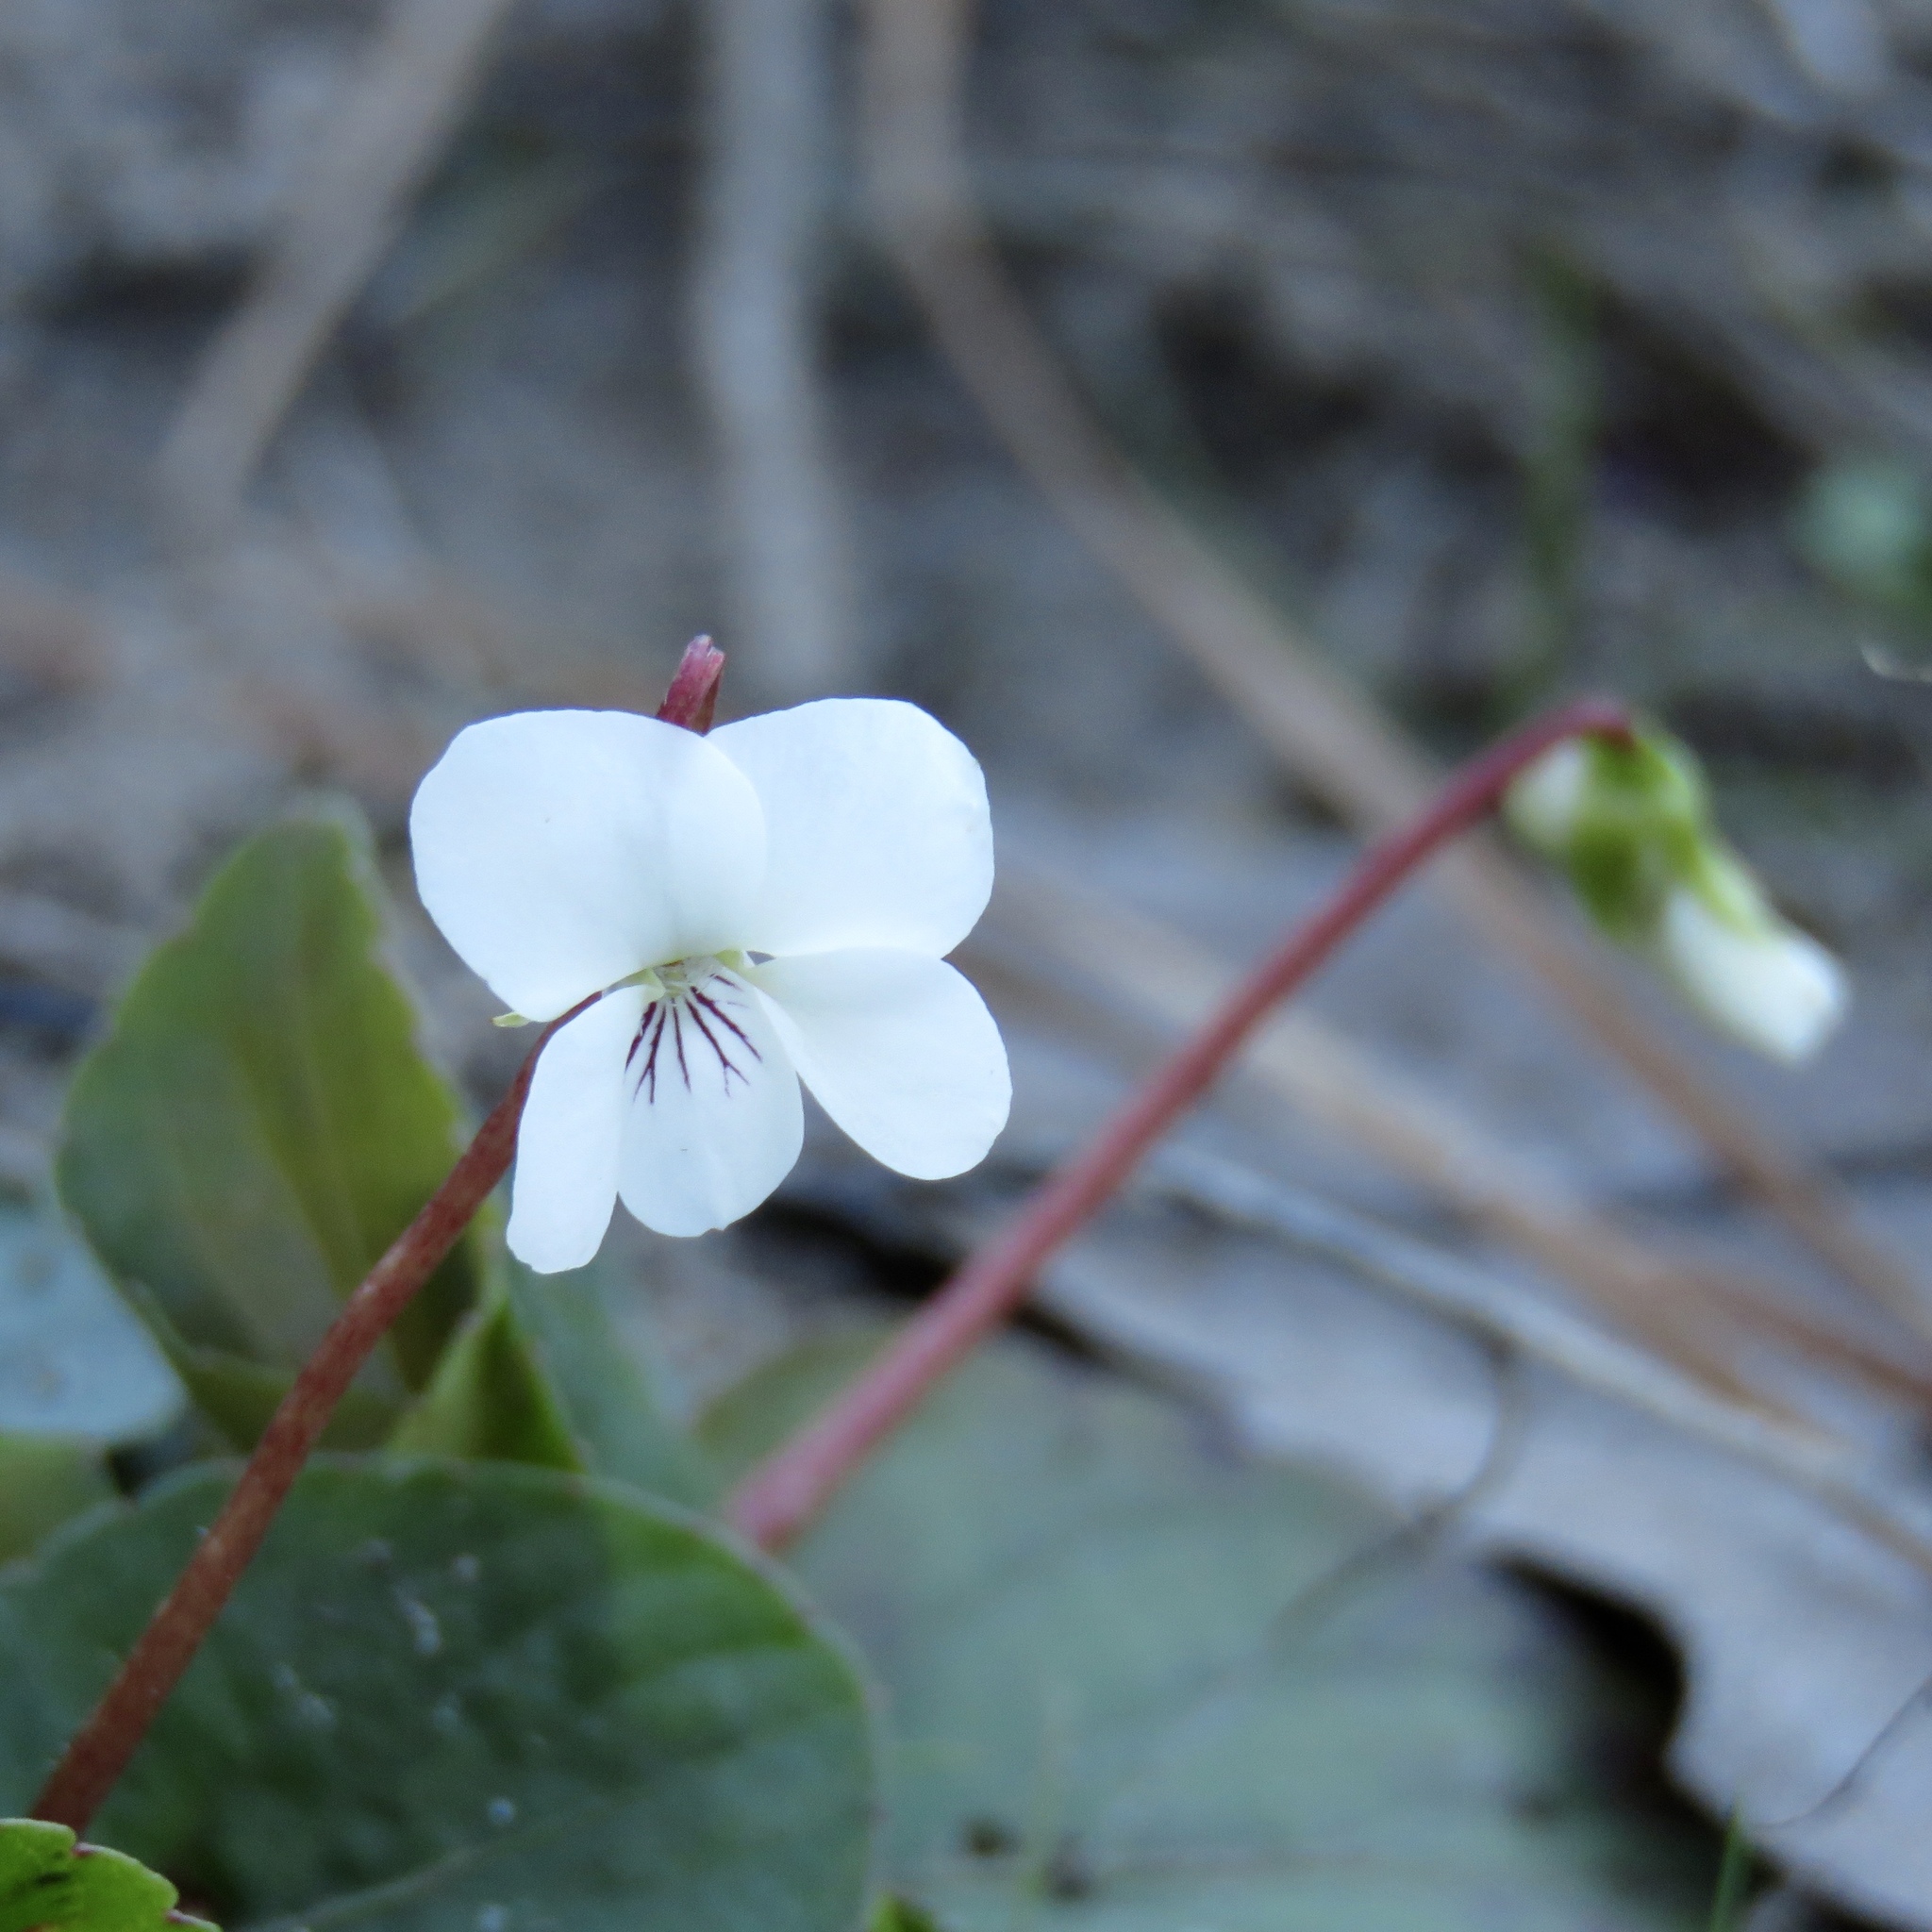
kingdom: Plantae
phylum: Tracheophyta
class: Magnoliopsida
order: Malpighiales
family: Violaceae
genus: Viola
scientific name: Viola primulifolia
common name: Primrose-leaf violet
